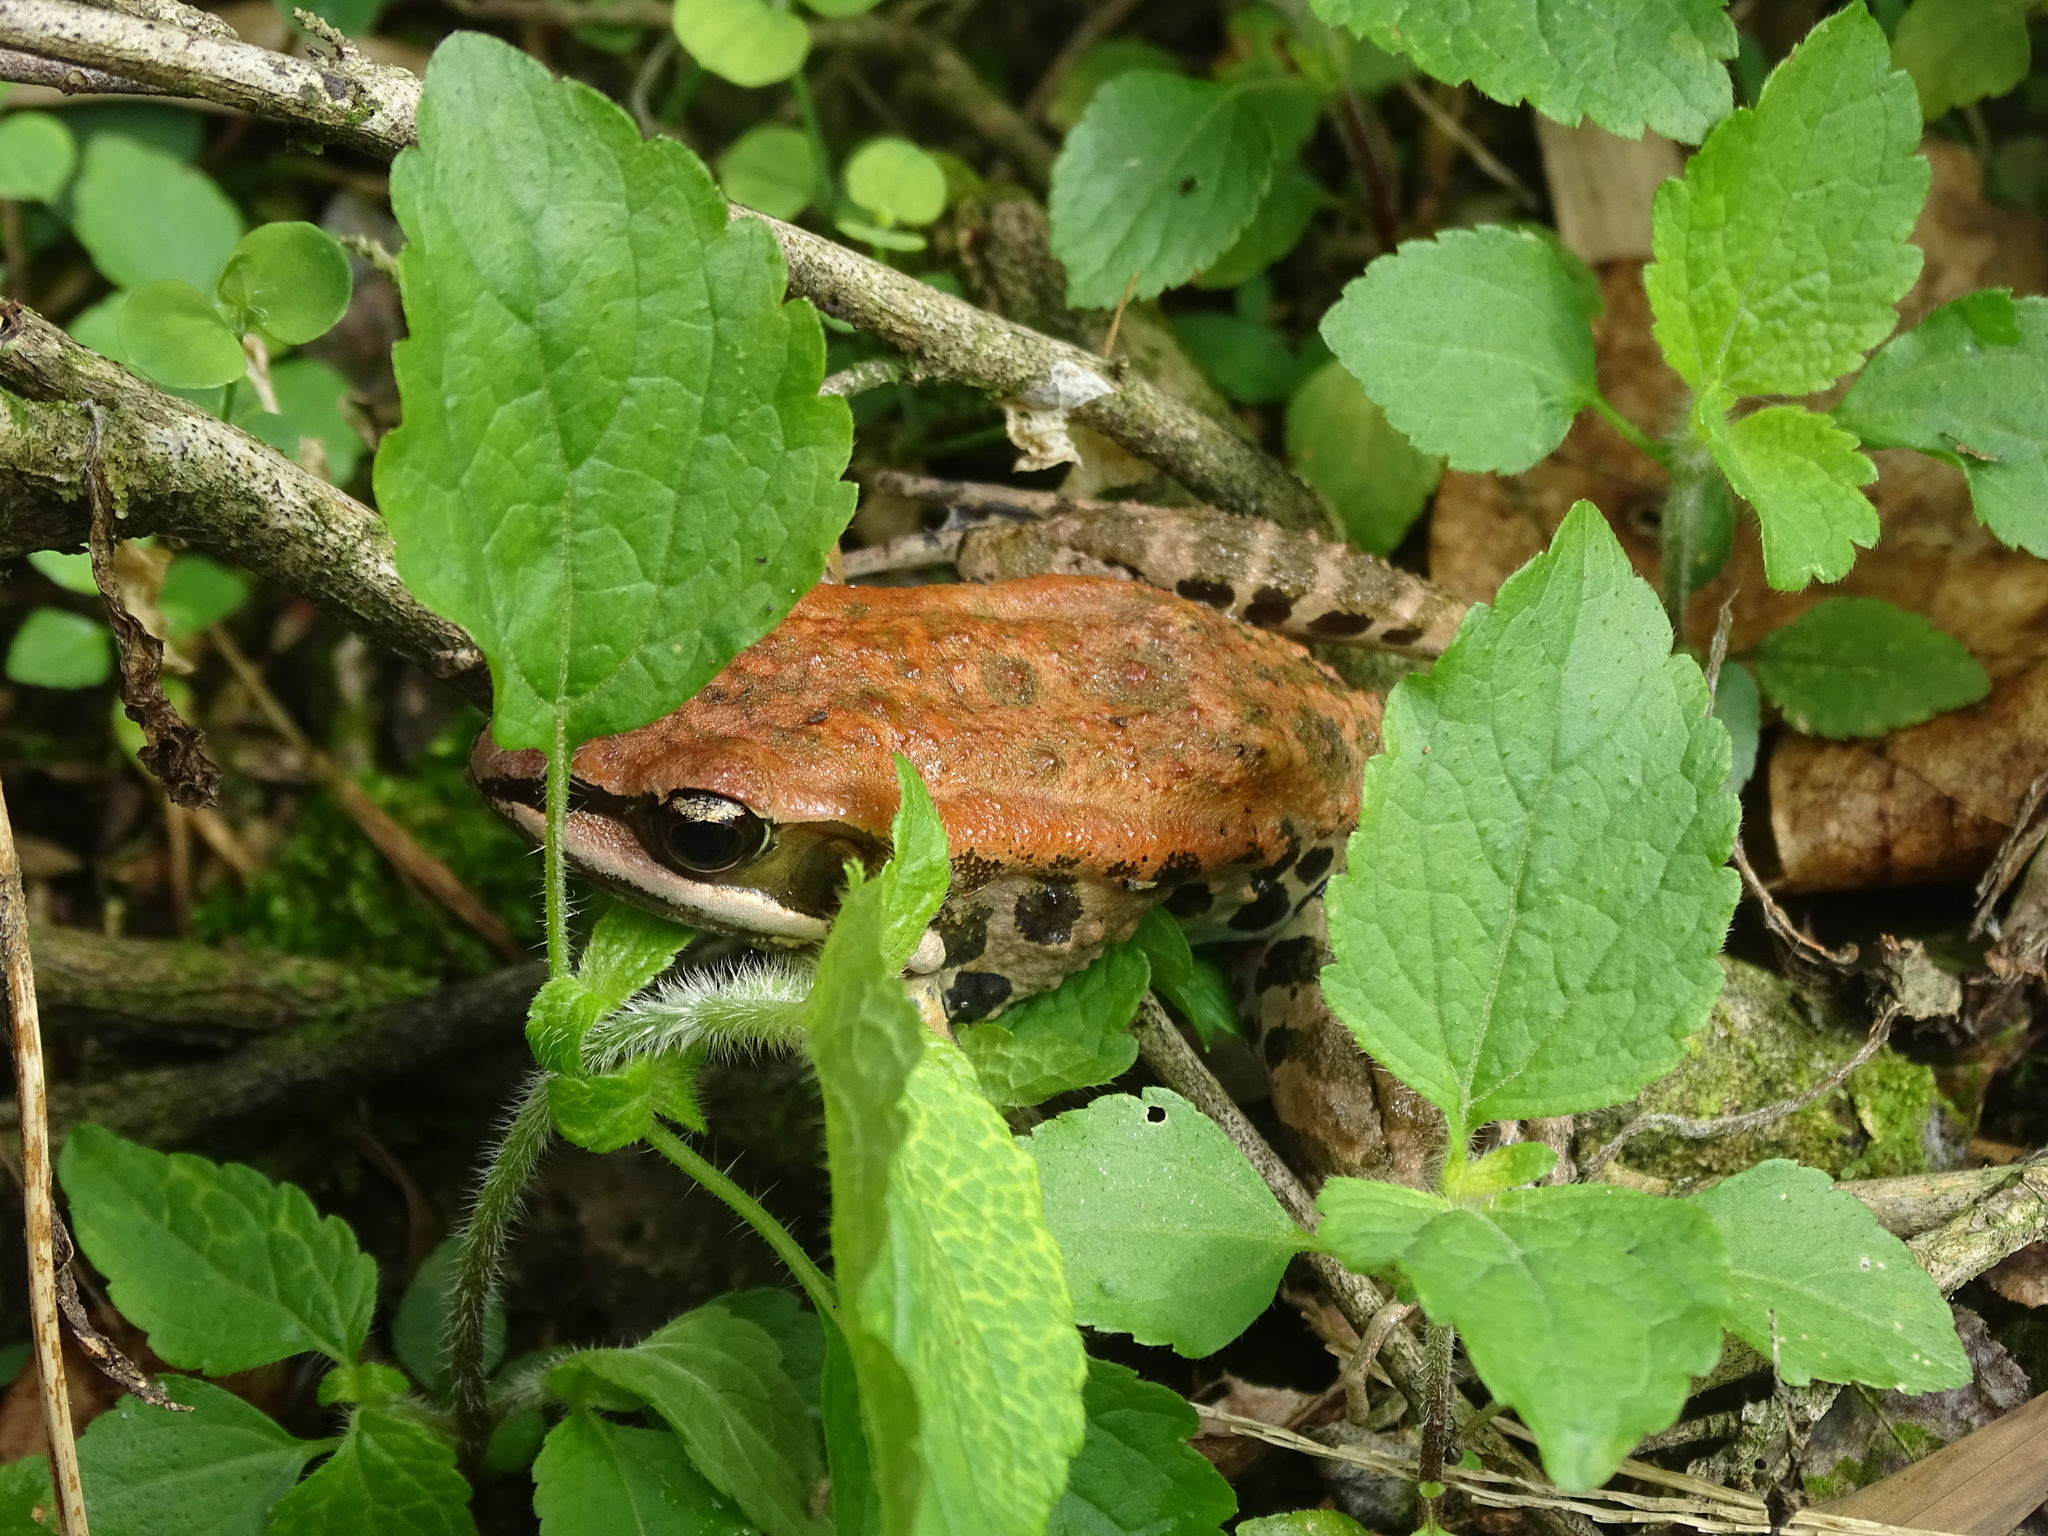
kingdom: Animalia
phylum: Chordata
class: Amphibia
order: Anura
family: Ranidae
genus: Hylarana
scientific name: Hylarana latouchii
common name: Broad-folded frog
